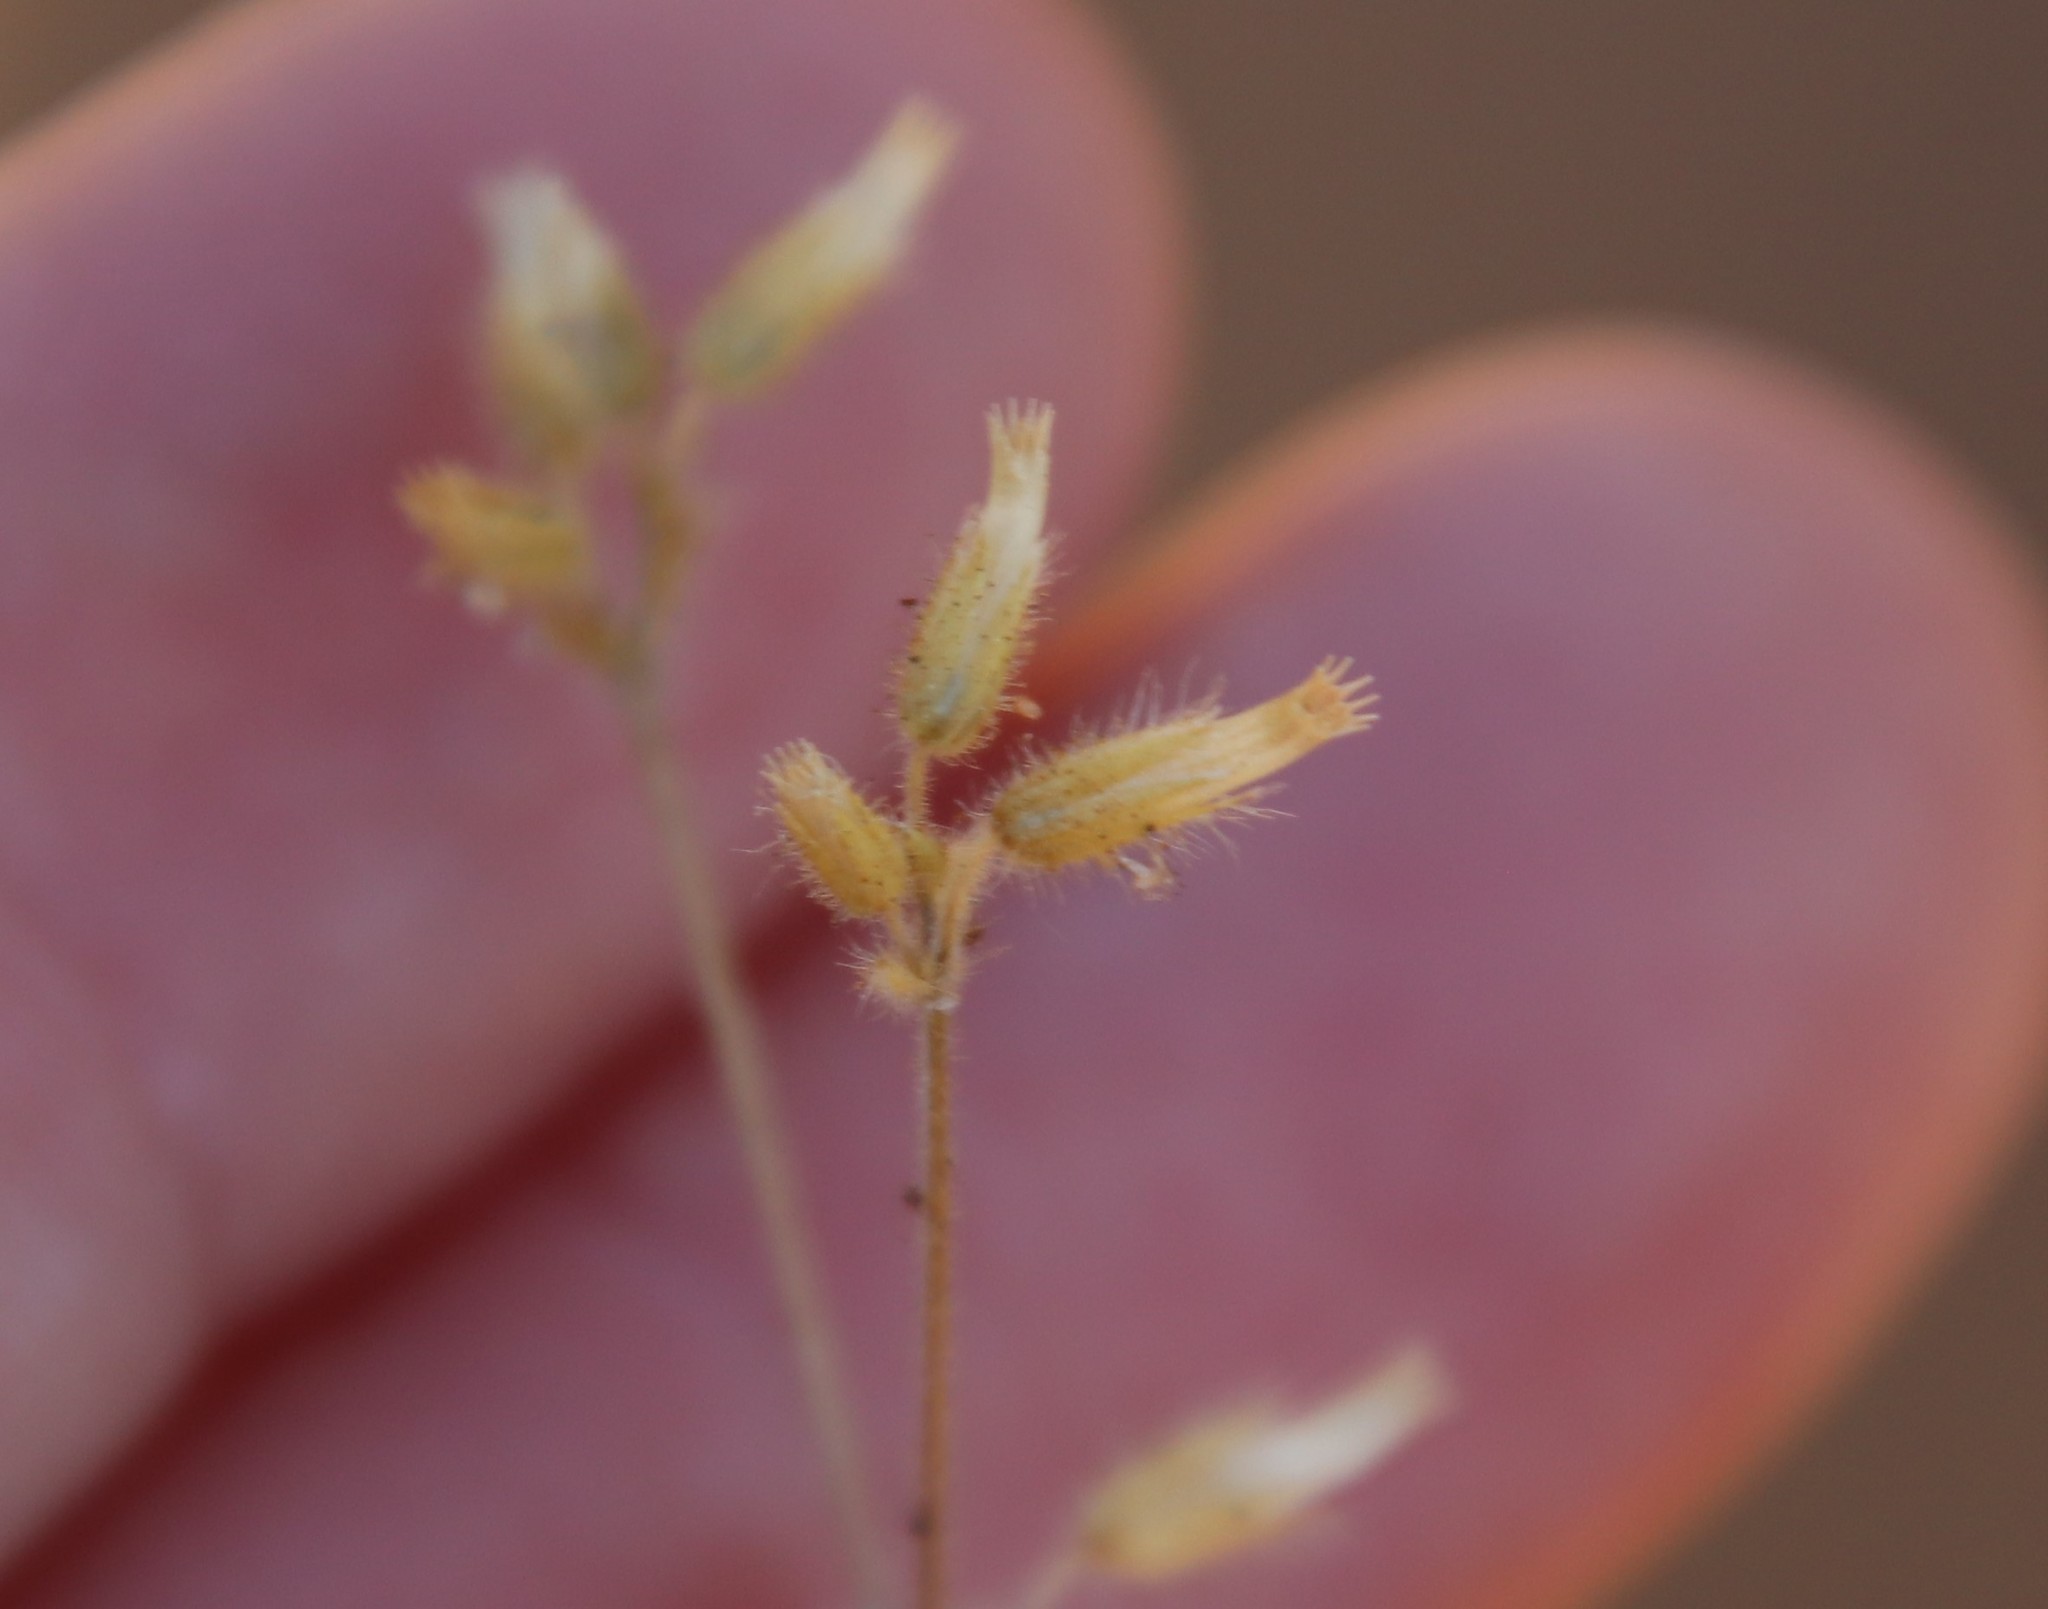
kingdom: Plantae
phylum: Tracheophyta
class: Magnoliopsida
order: Caryophyllales
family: Caryophyllaceae
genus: Cerastium
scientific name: Cerastium glomeratum
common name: Sticky chickweed
